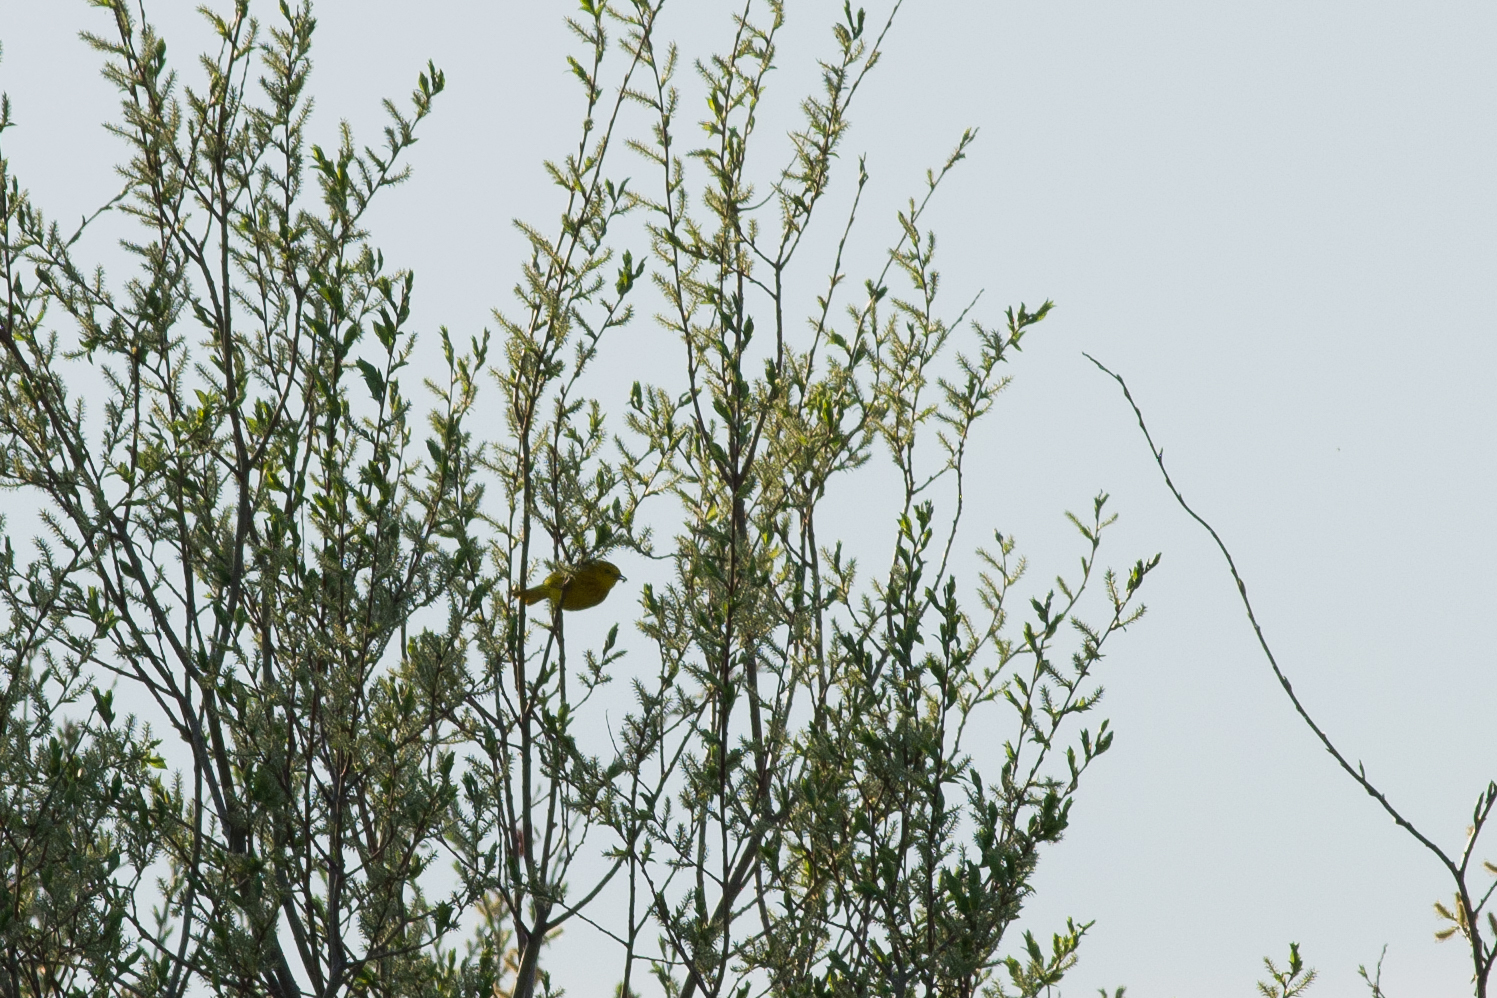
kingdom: Animalia
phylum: Chordata
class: Aves
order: Passeriformes
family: Parulidae
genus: Setophaga
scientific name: Setophaga petechia
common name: Yellow warbler
